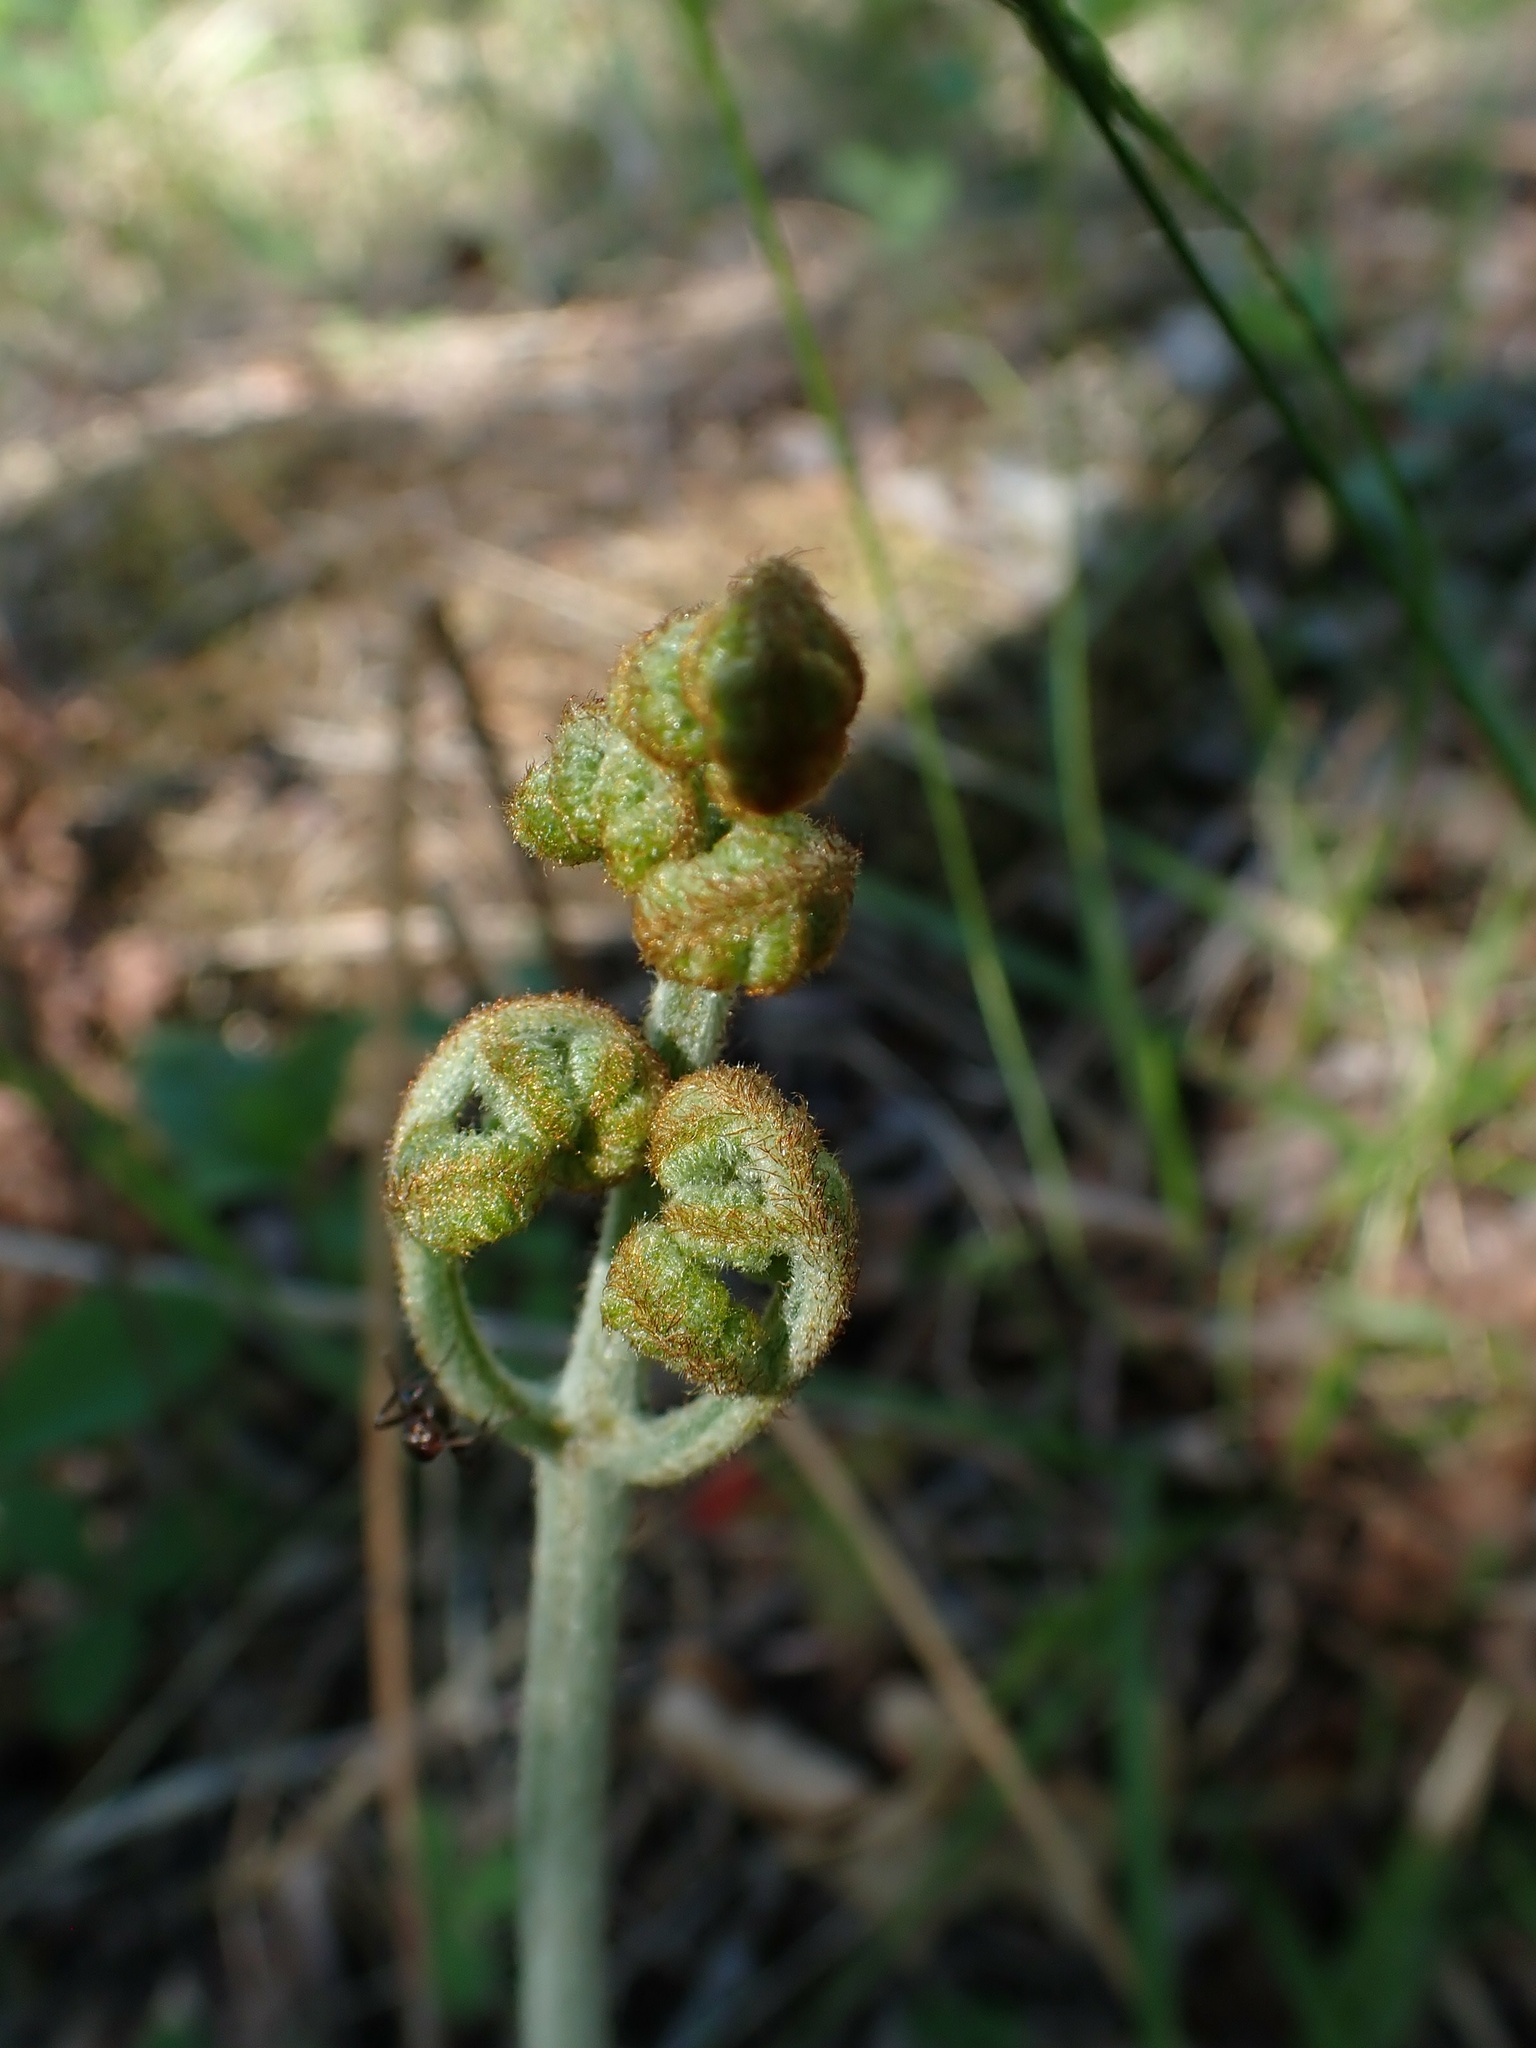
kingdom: Plantae
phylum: Tracheophyta
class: Polypodiopsida
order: Polypodiales
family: Dennstaedtiaceae
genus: Pteridium
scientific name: Pteridium aquilinum
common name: Bracken
